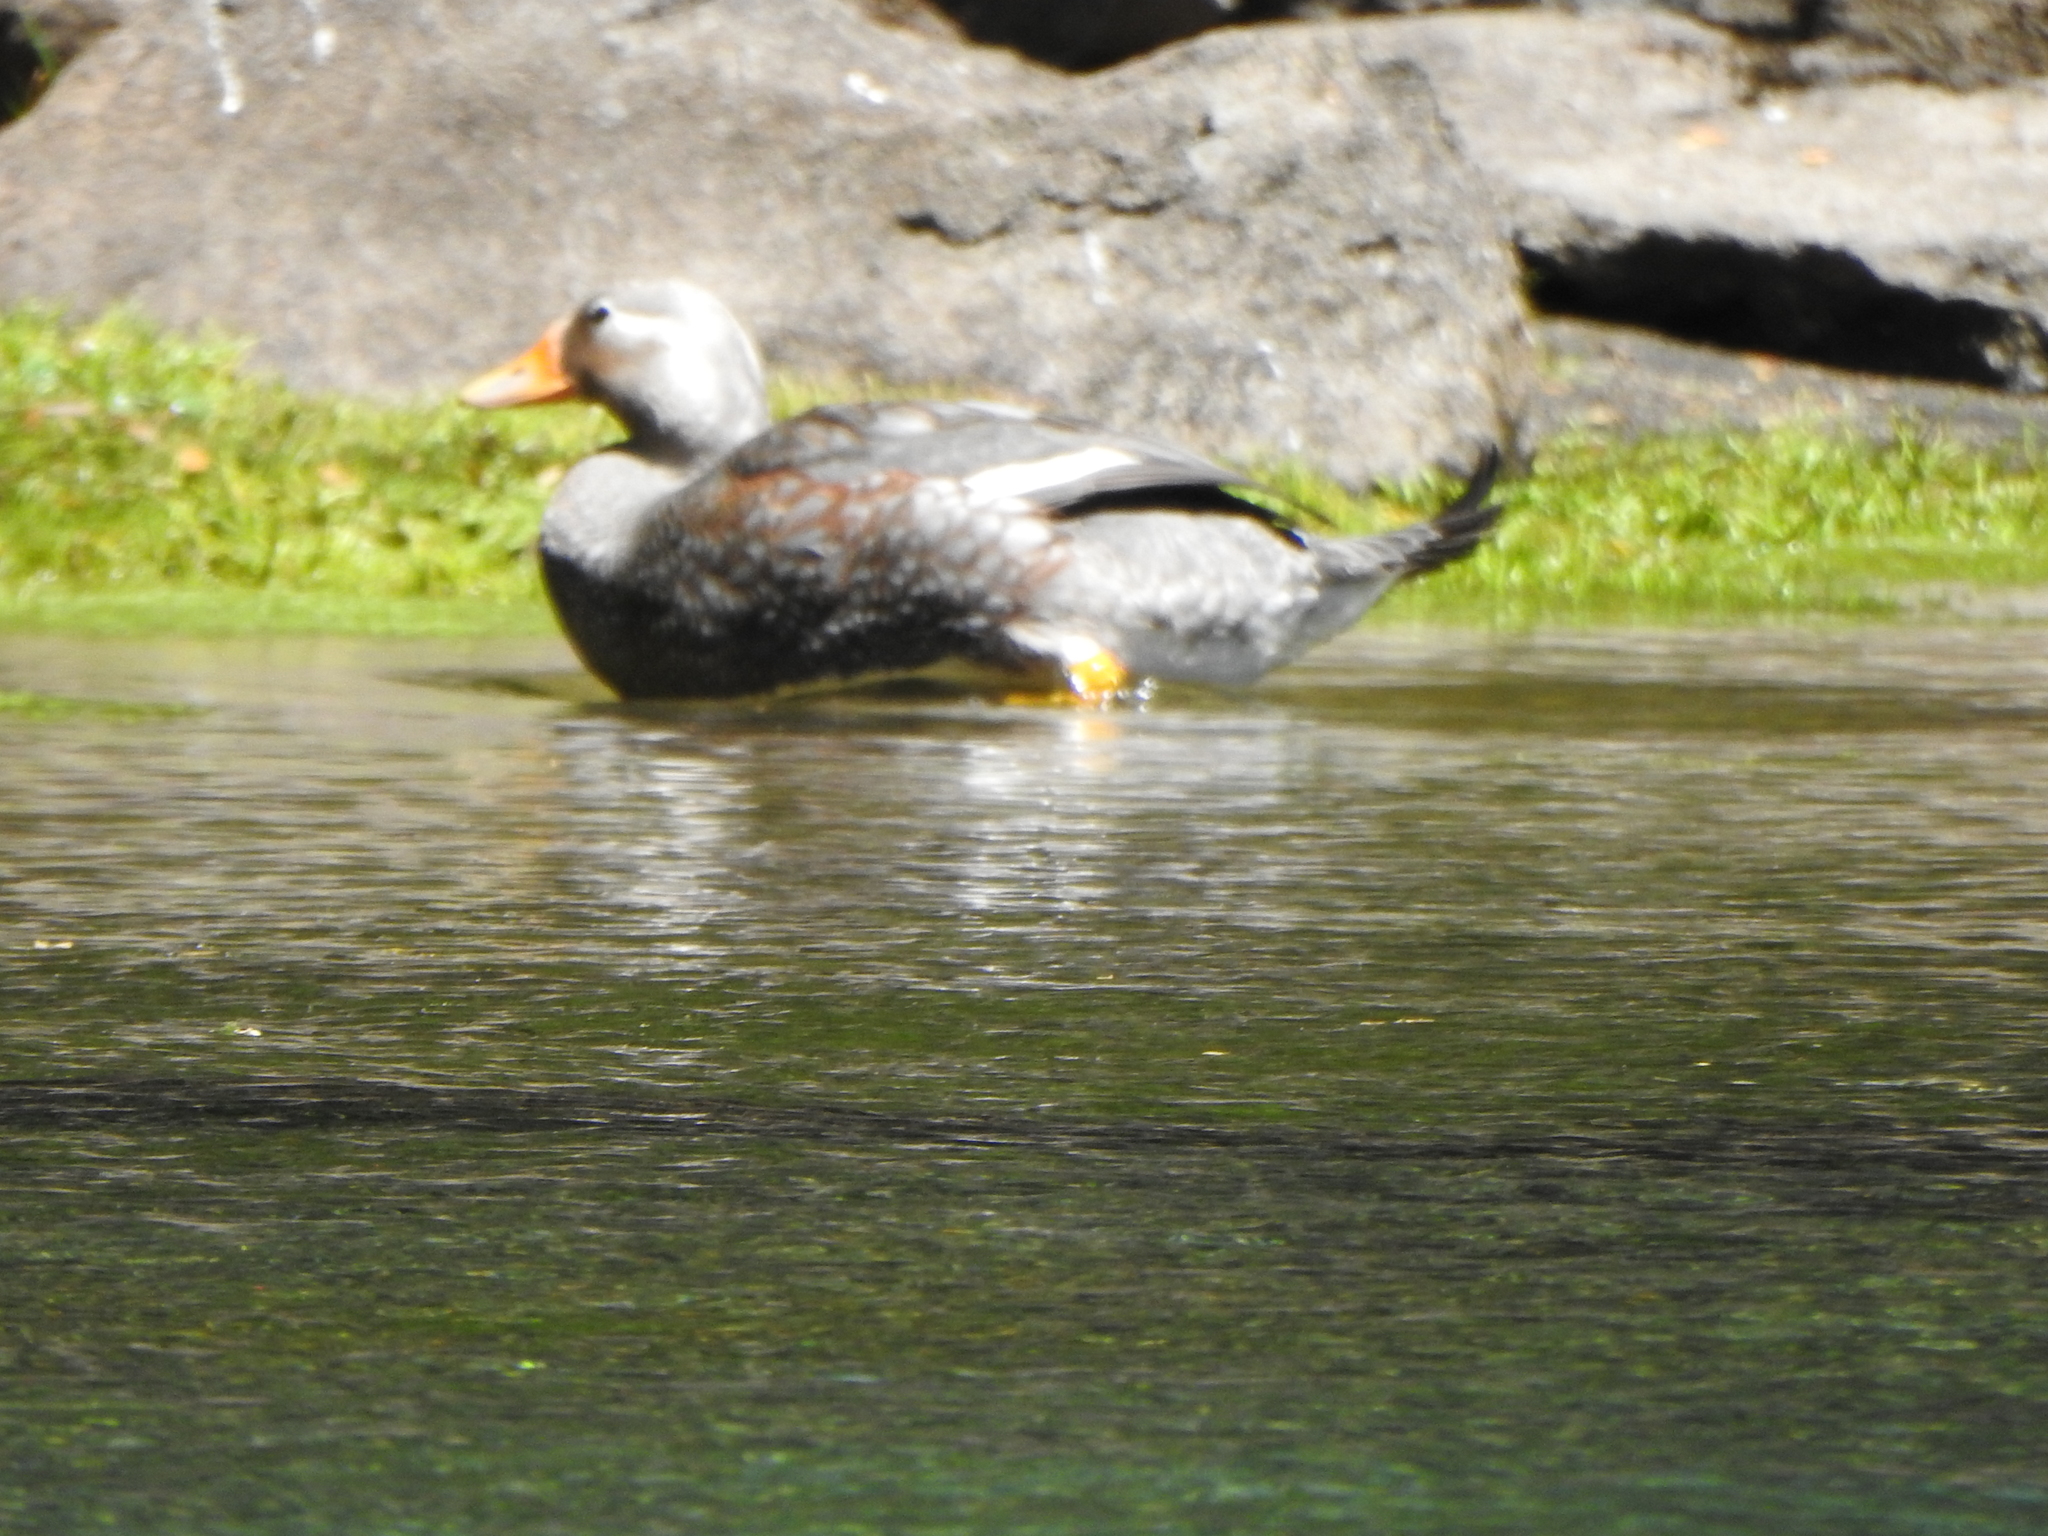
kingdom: Animalia
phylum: Chordata
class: Aves
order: Anseriformes
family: Anatidae
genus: Tachyeres
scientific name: Tachyeres patachonicus
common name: Flying steamer duck
